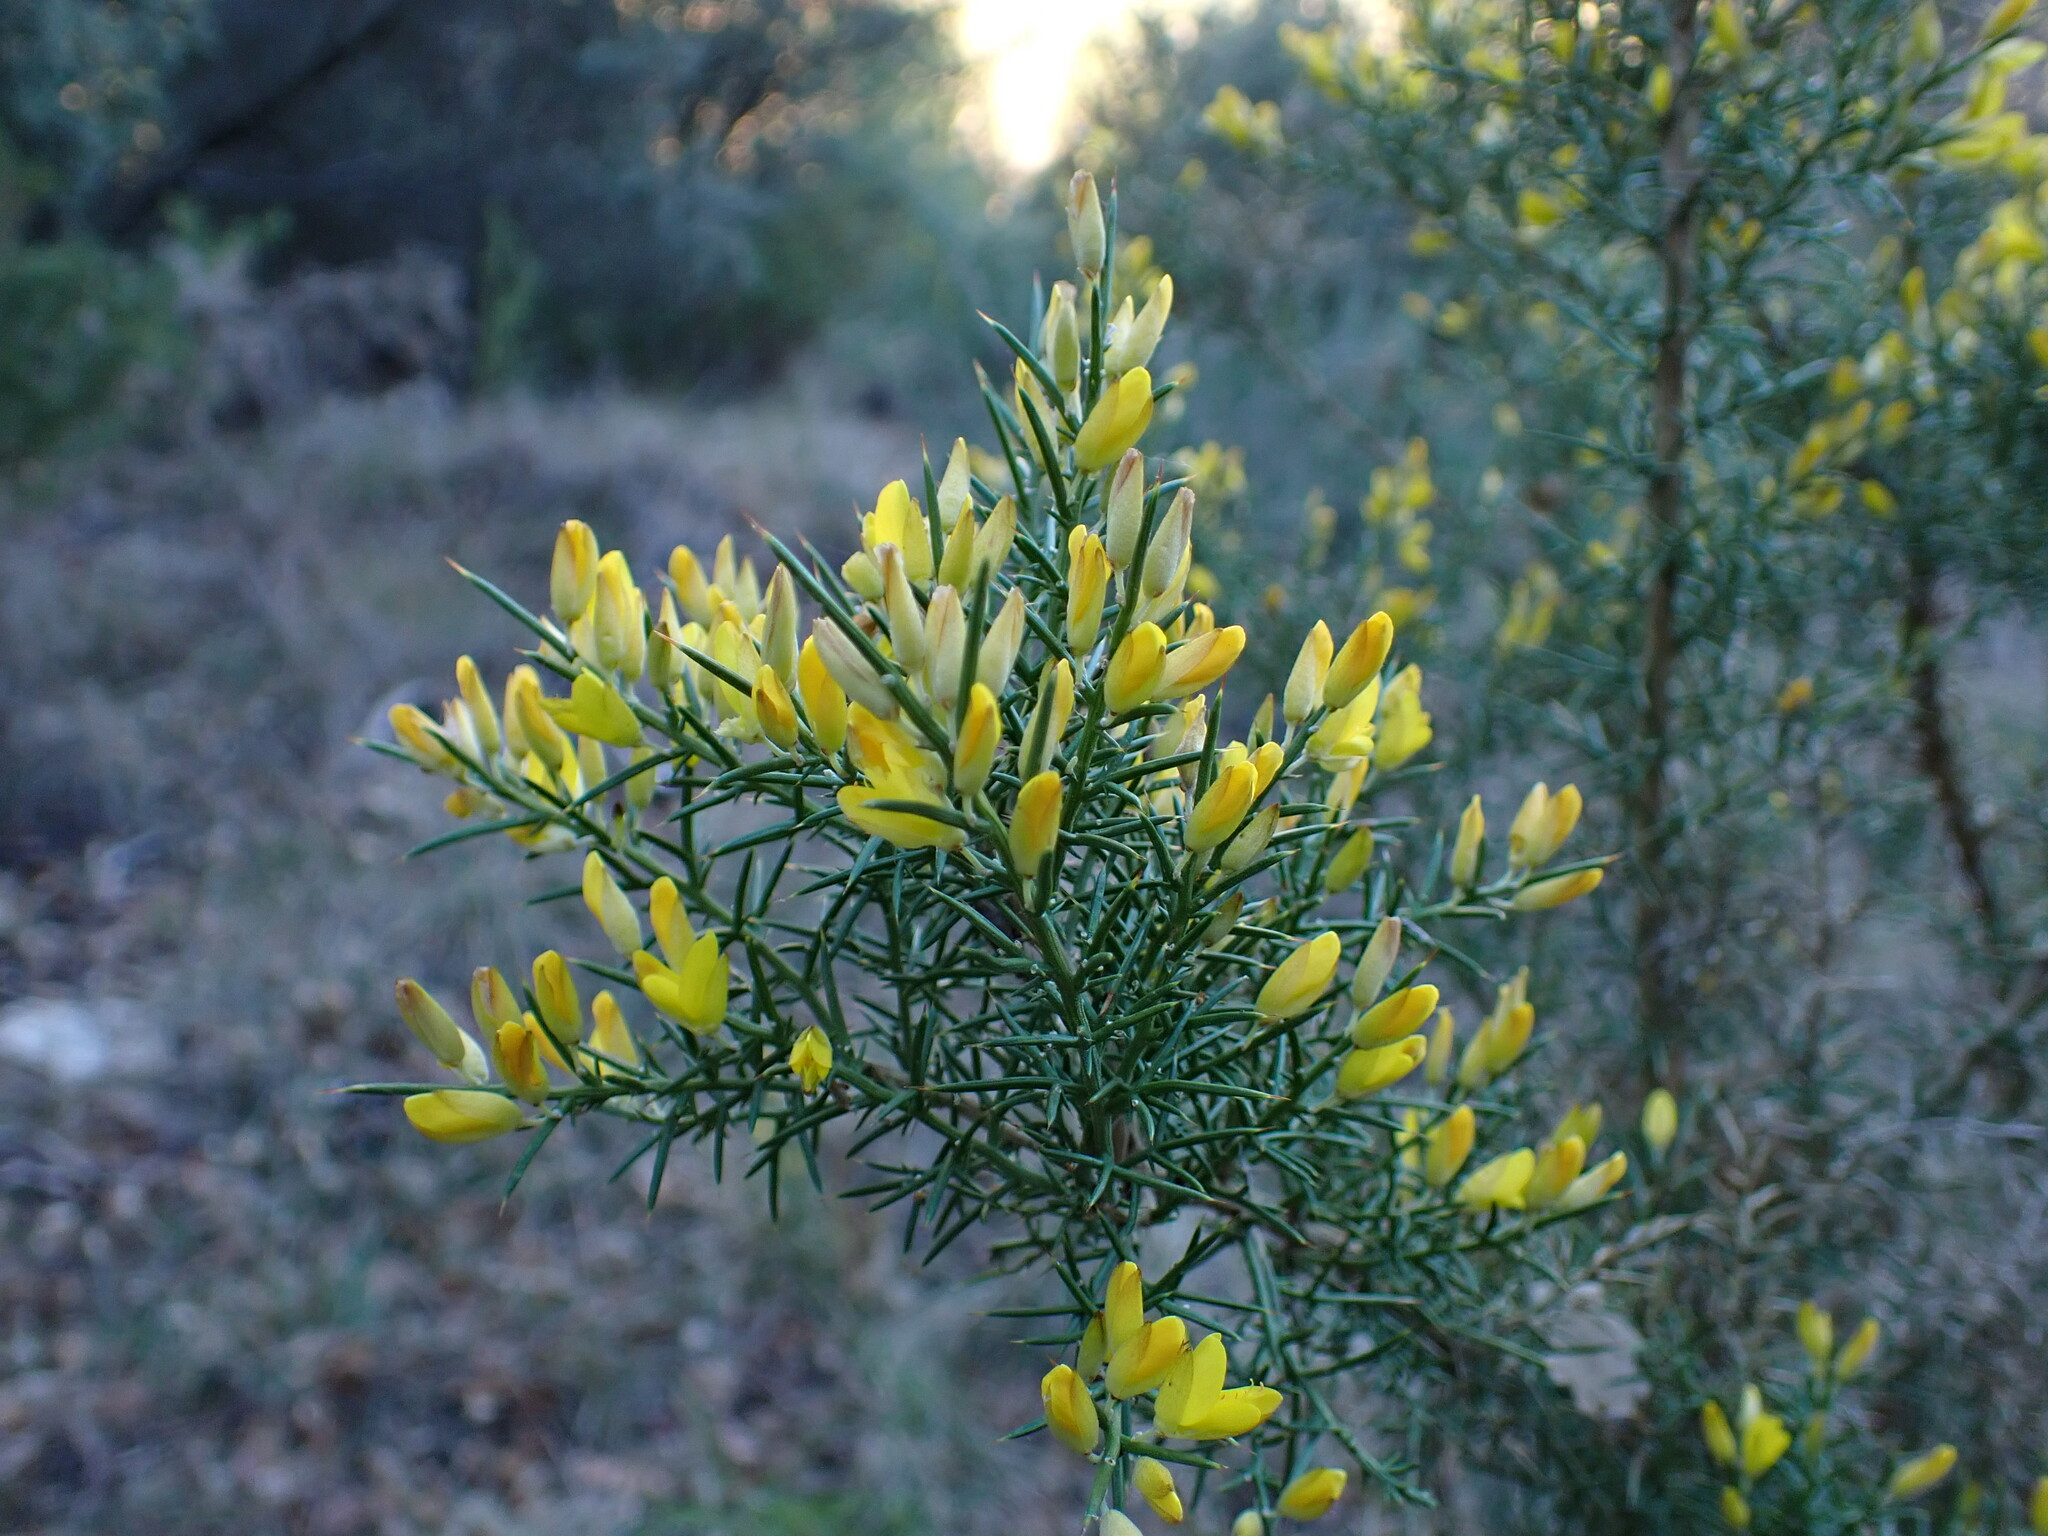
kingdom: Plantae
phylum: Tracheophyta
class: Magnoliopsida
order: Fabales
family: Fabaceae
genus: Ulex
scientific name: Ulex parviflorus
